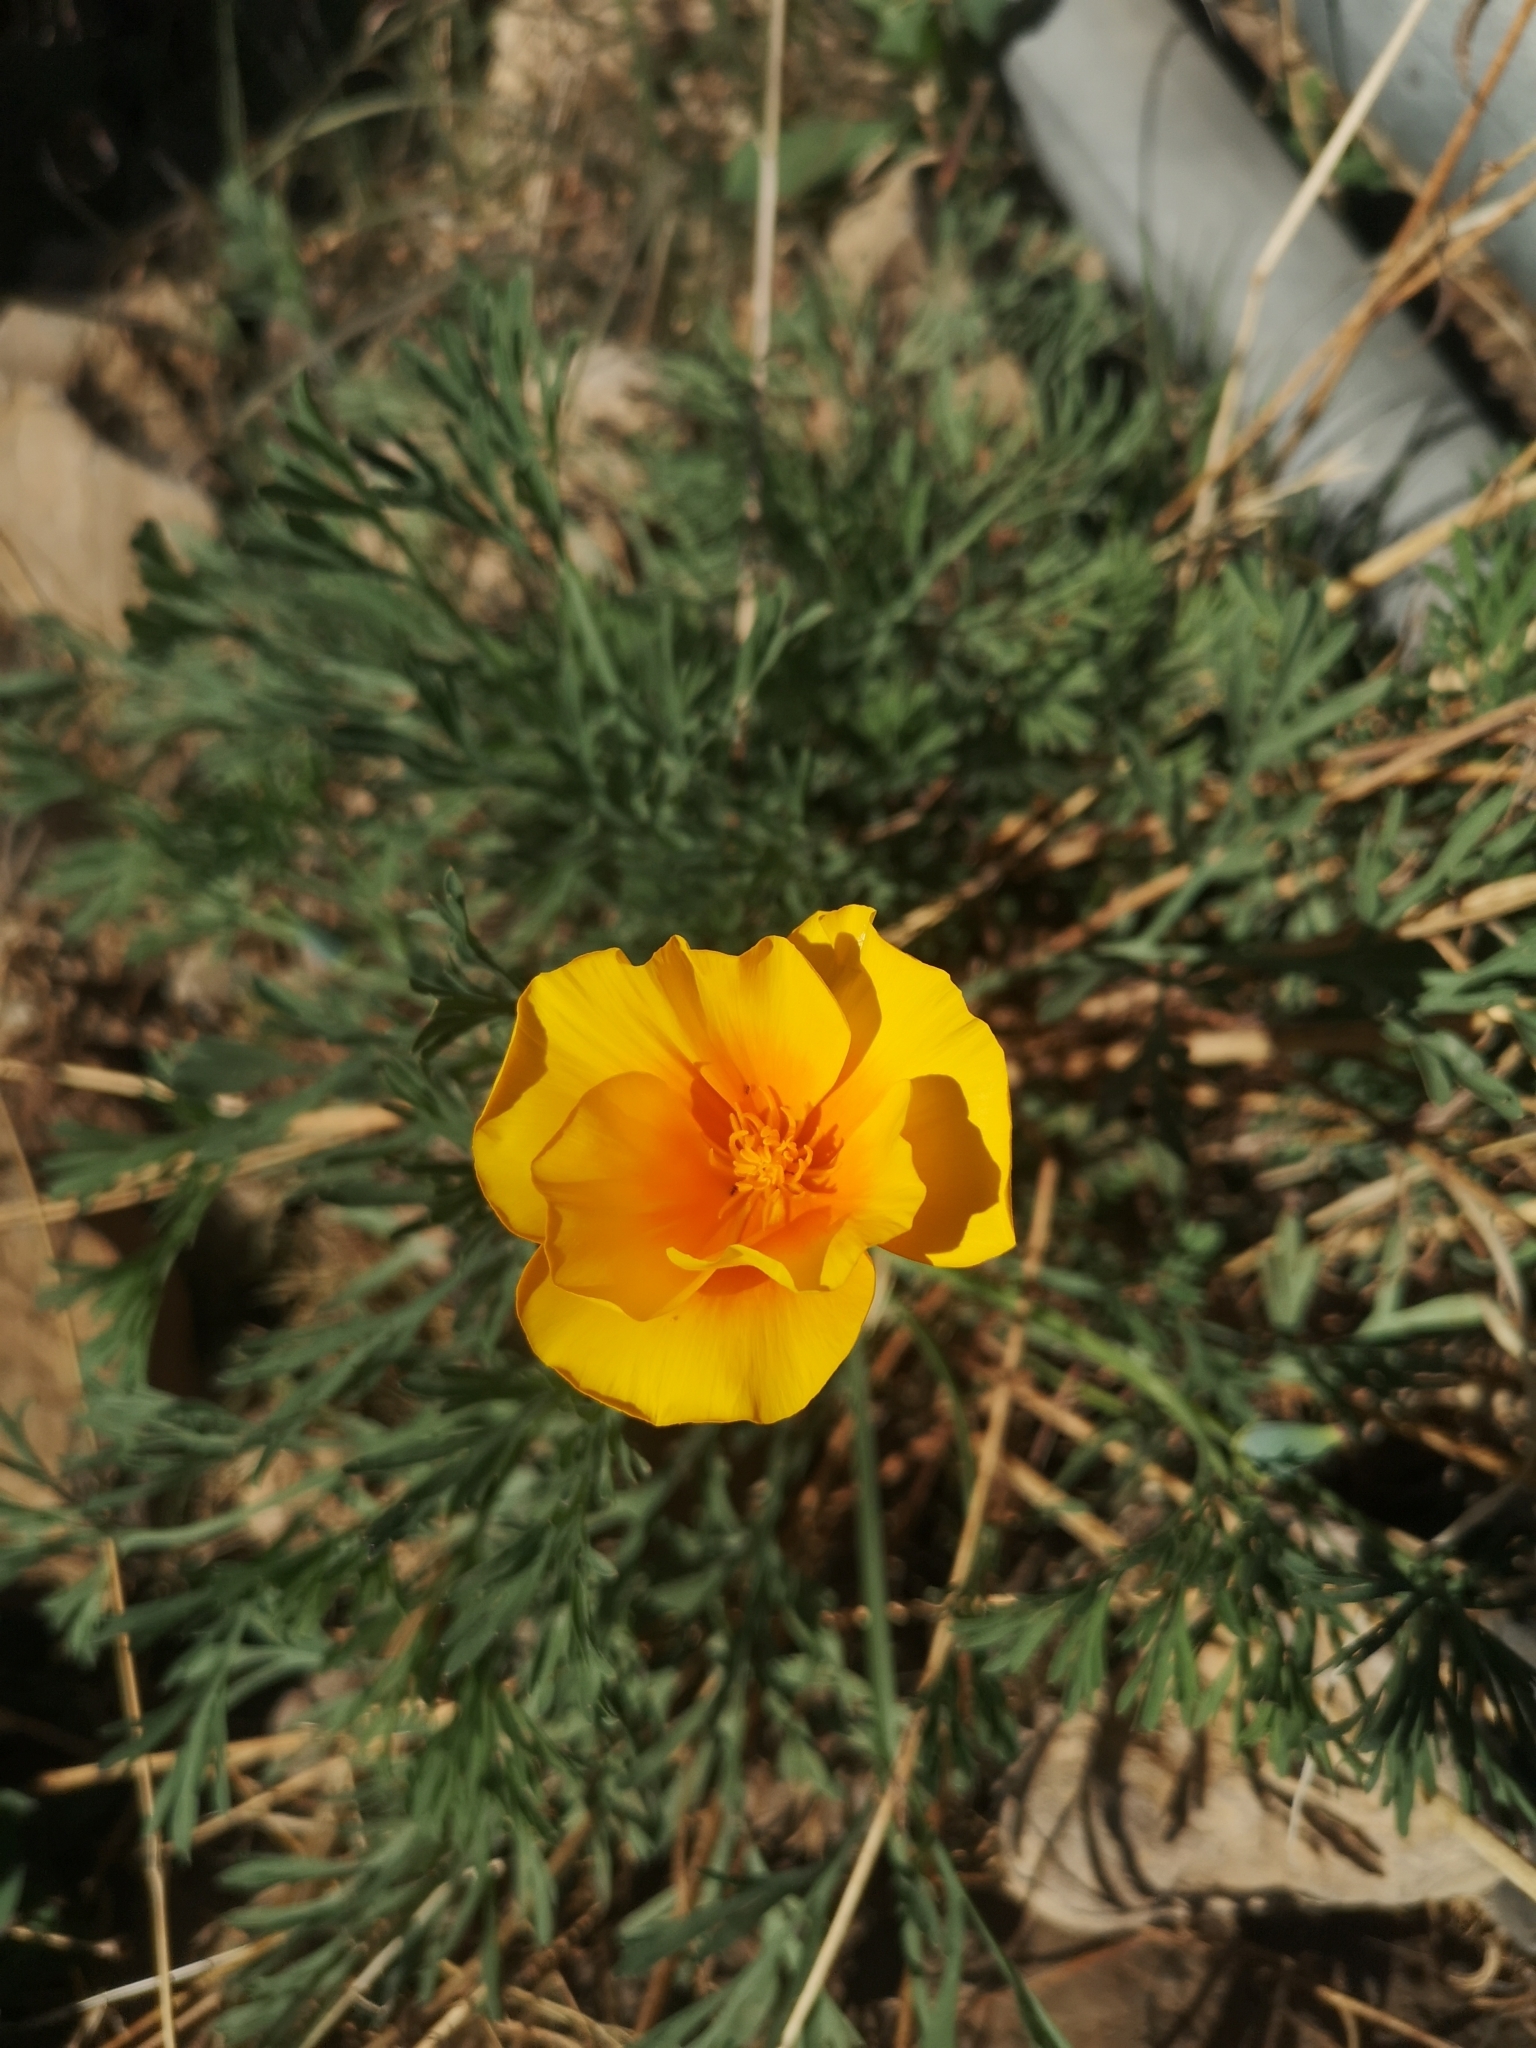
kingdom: Plantae
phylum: Tracheophyta
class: Magnoliopsida
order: Ranunculales
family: Papaveraceae
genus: Eschscholzia
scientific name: Eschscholzia californica
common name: California poppy
